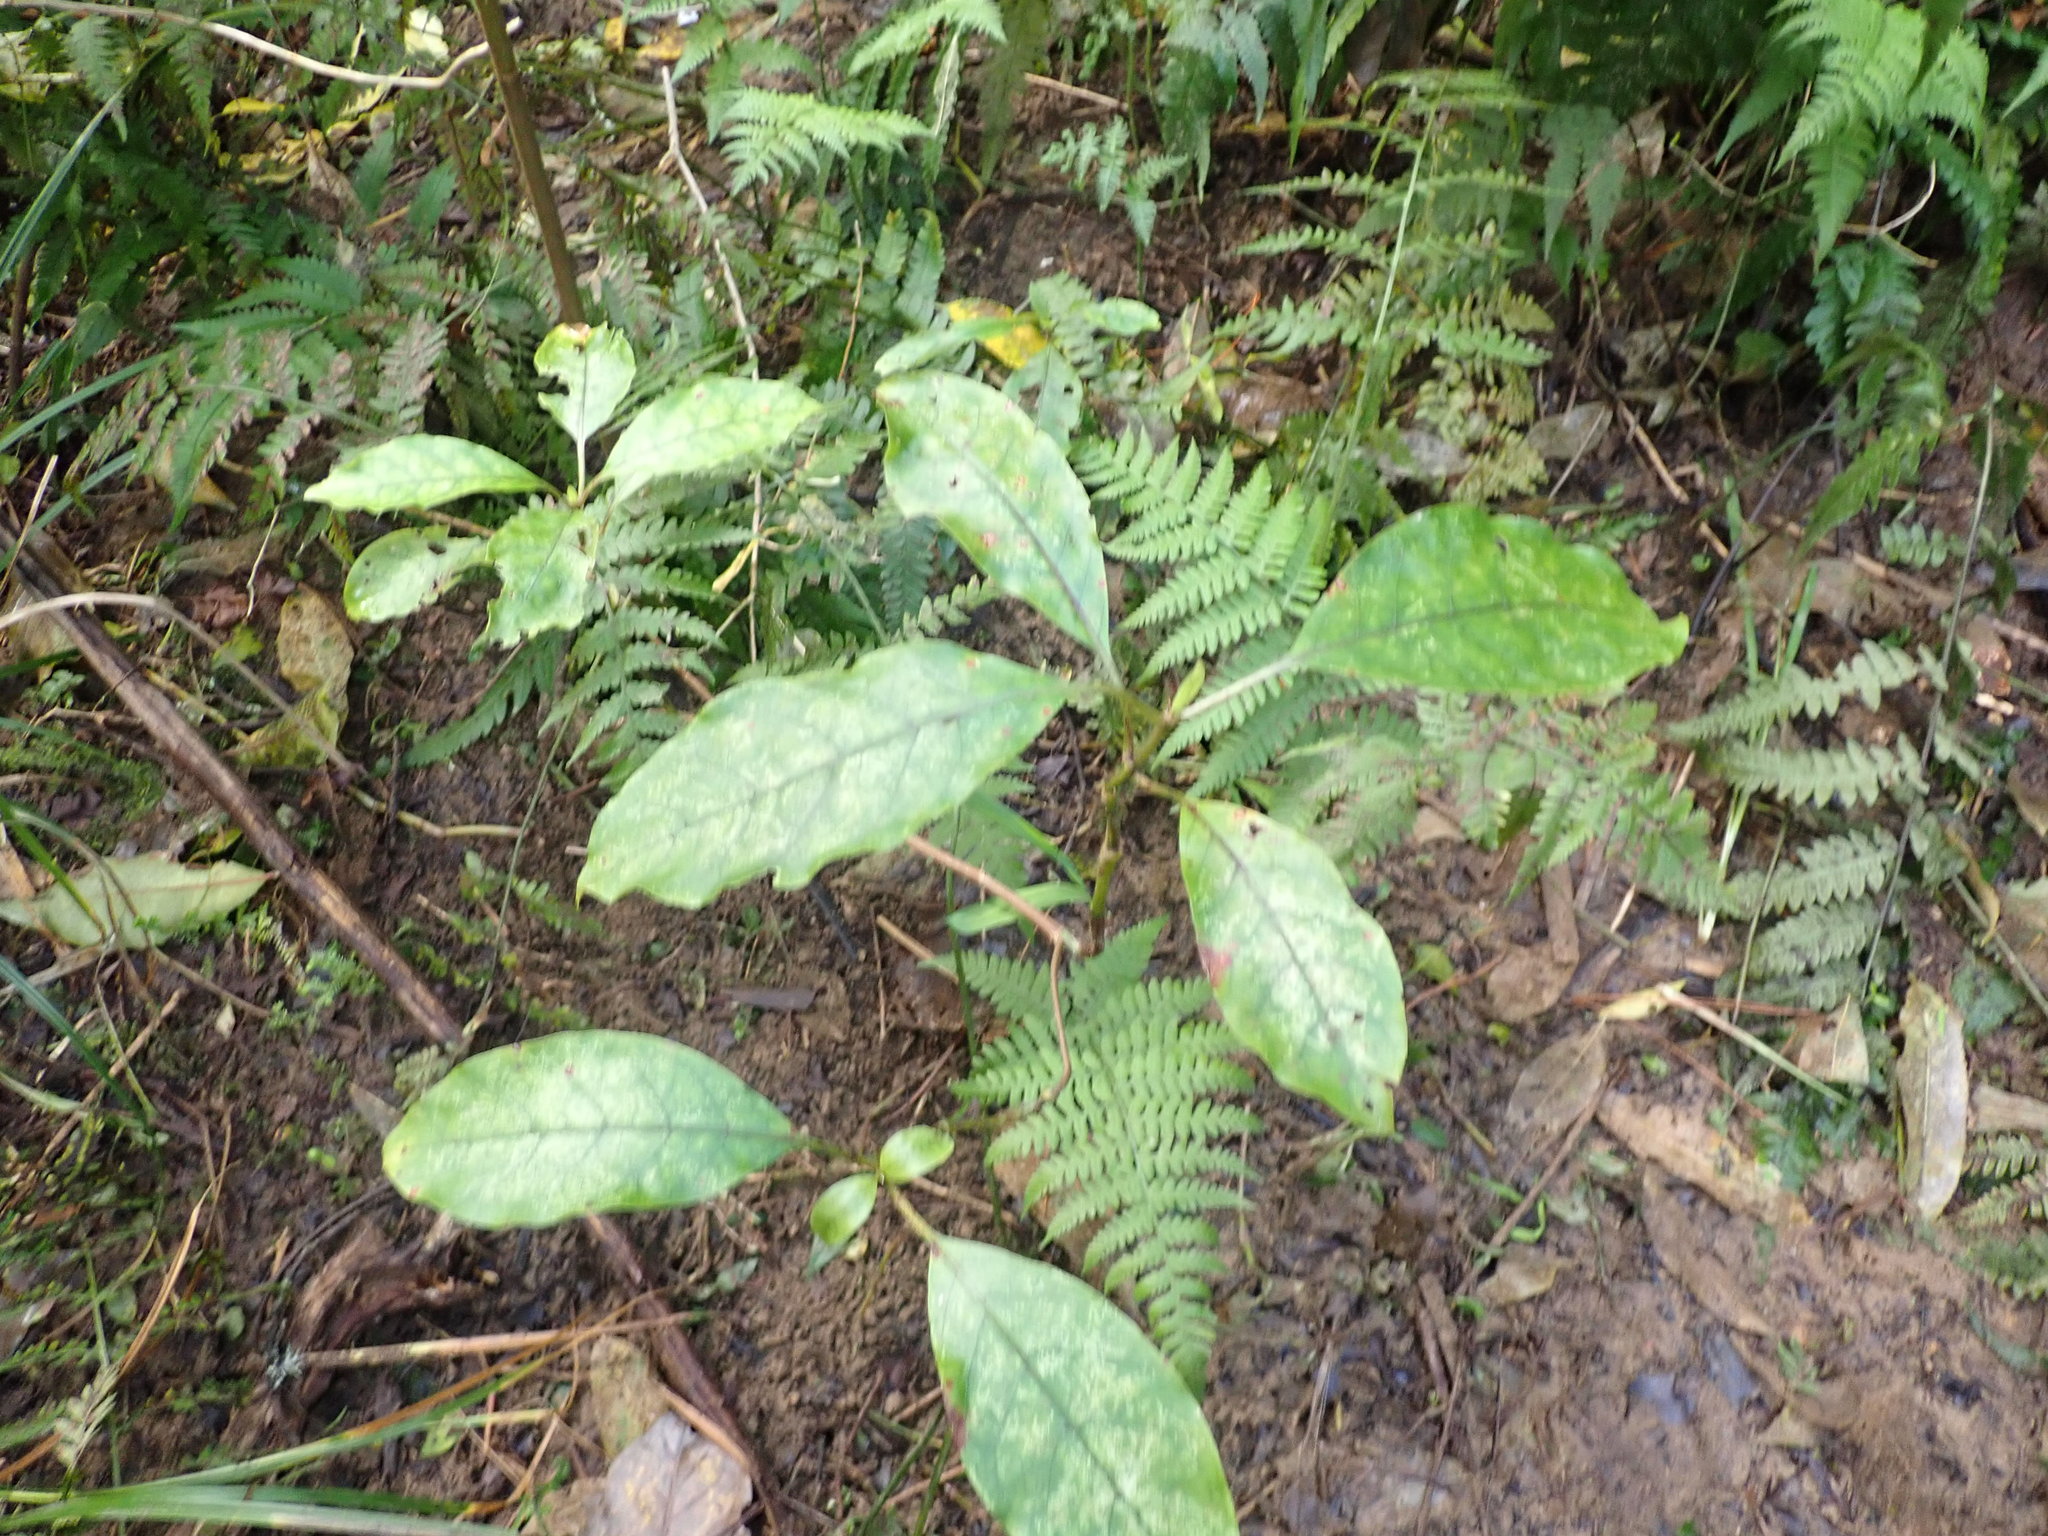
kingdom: Plantae
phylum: Tracheophyta
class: Magnoliopsida
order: Gentianales
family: Rubiaceae
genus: Coprosma
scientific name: Coprosma autumnalis
